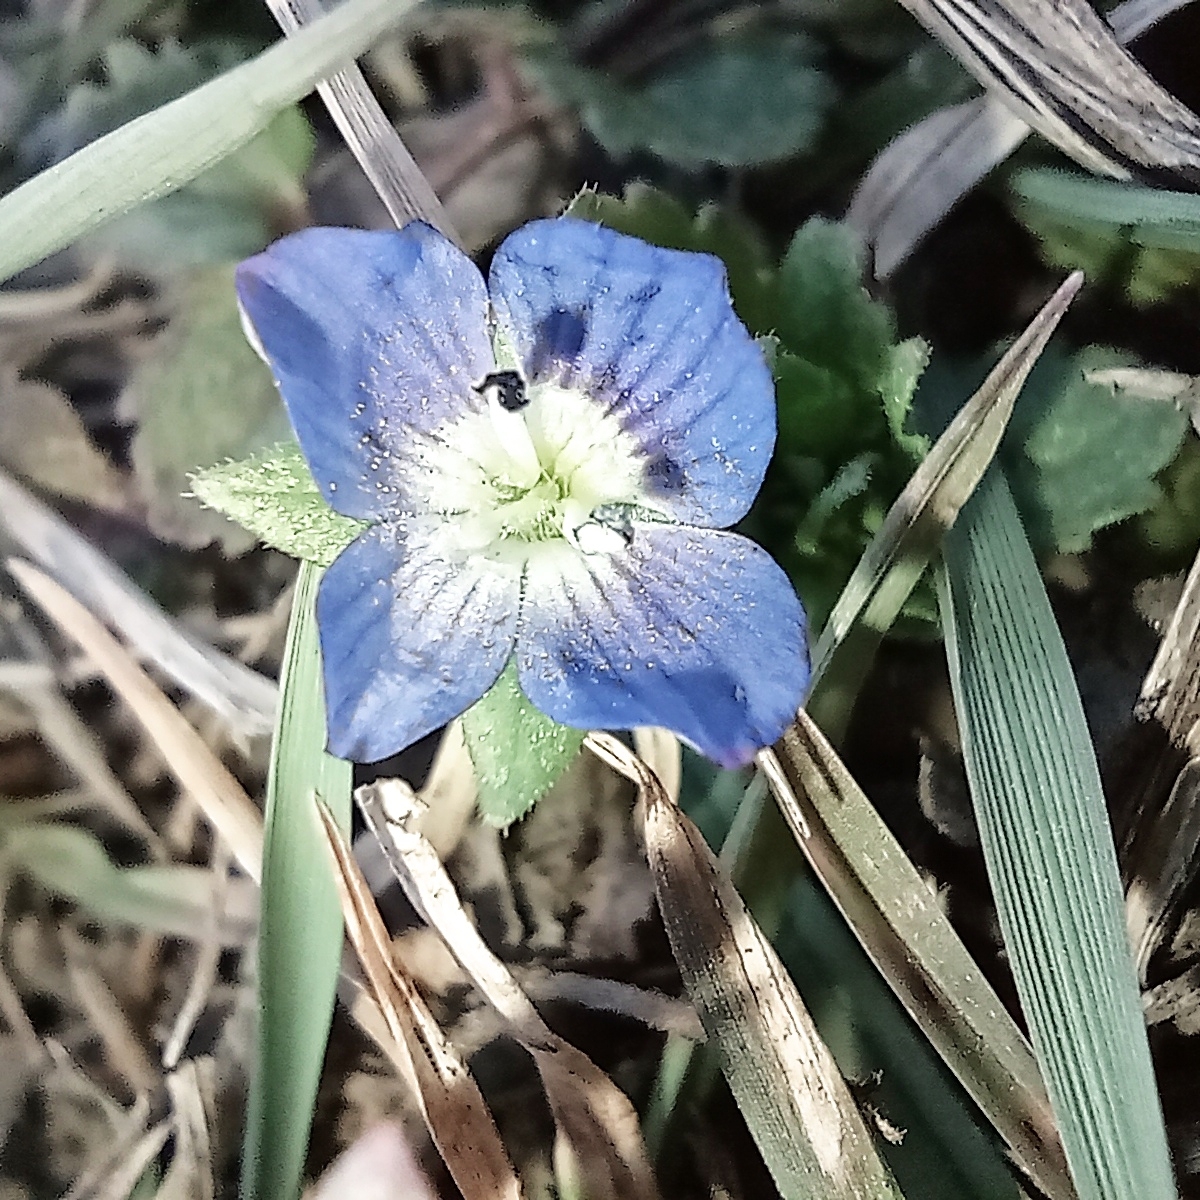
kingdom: Plantae
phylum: Tracheophyta
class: Magnoliopsida
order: Lamiales
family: Plantaginaceae
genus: Veronica
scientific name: Veronica persica
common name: Common field-speedwell
